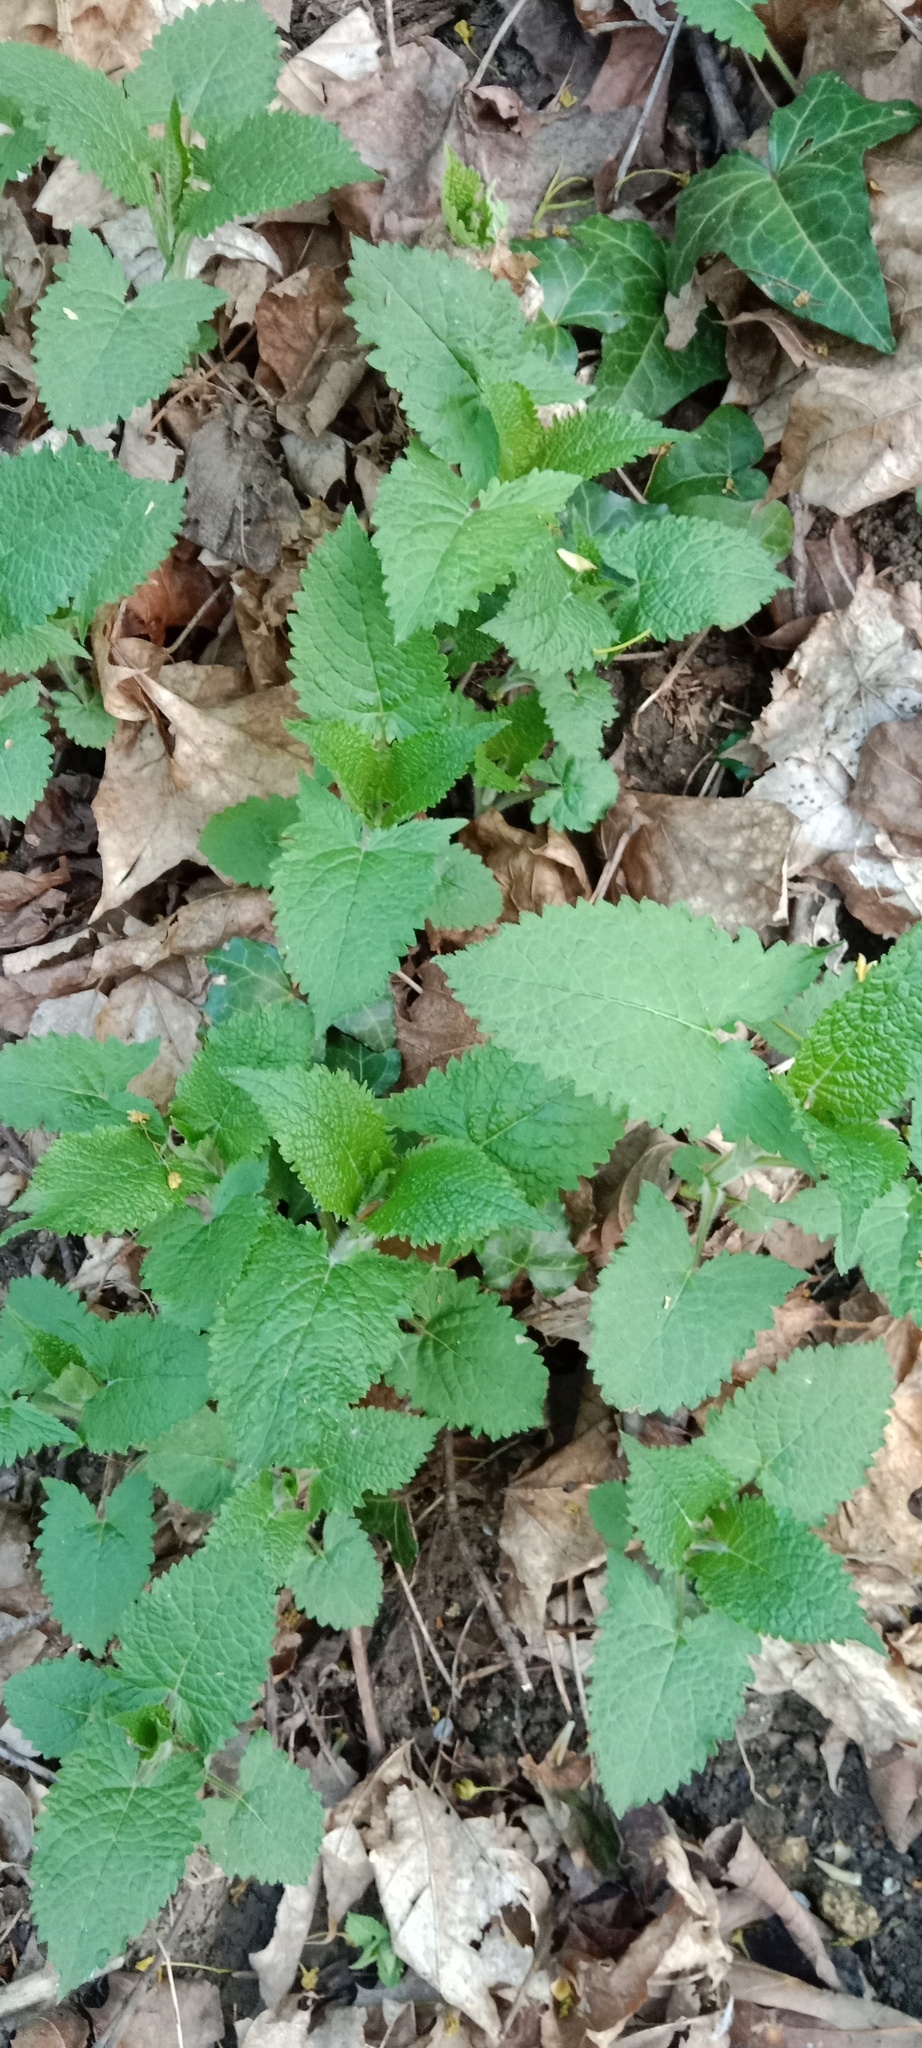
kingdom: Plantae
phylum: Tracheophyta
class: Magnoliopsida
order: Lamiales
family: Lamiaceae
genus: Salvia
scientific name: Salvia glutinosa
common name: Sticky clary
